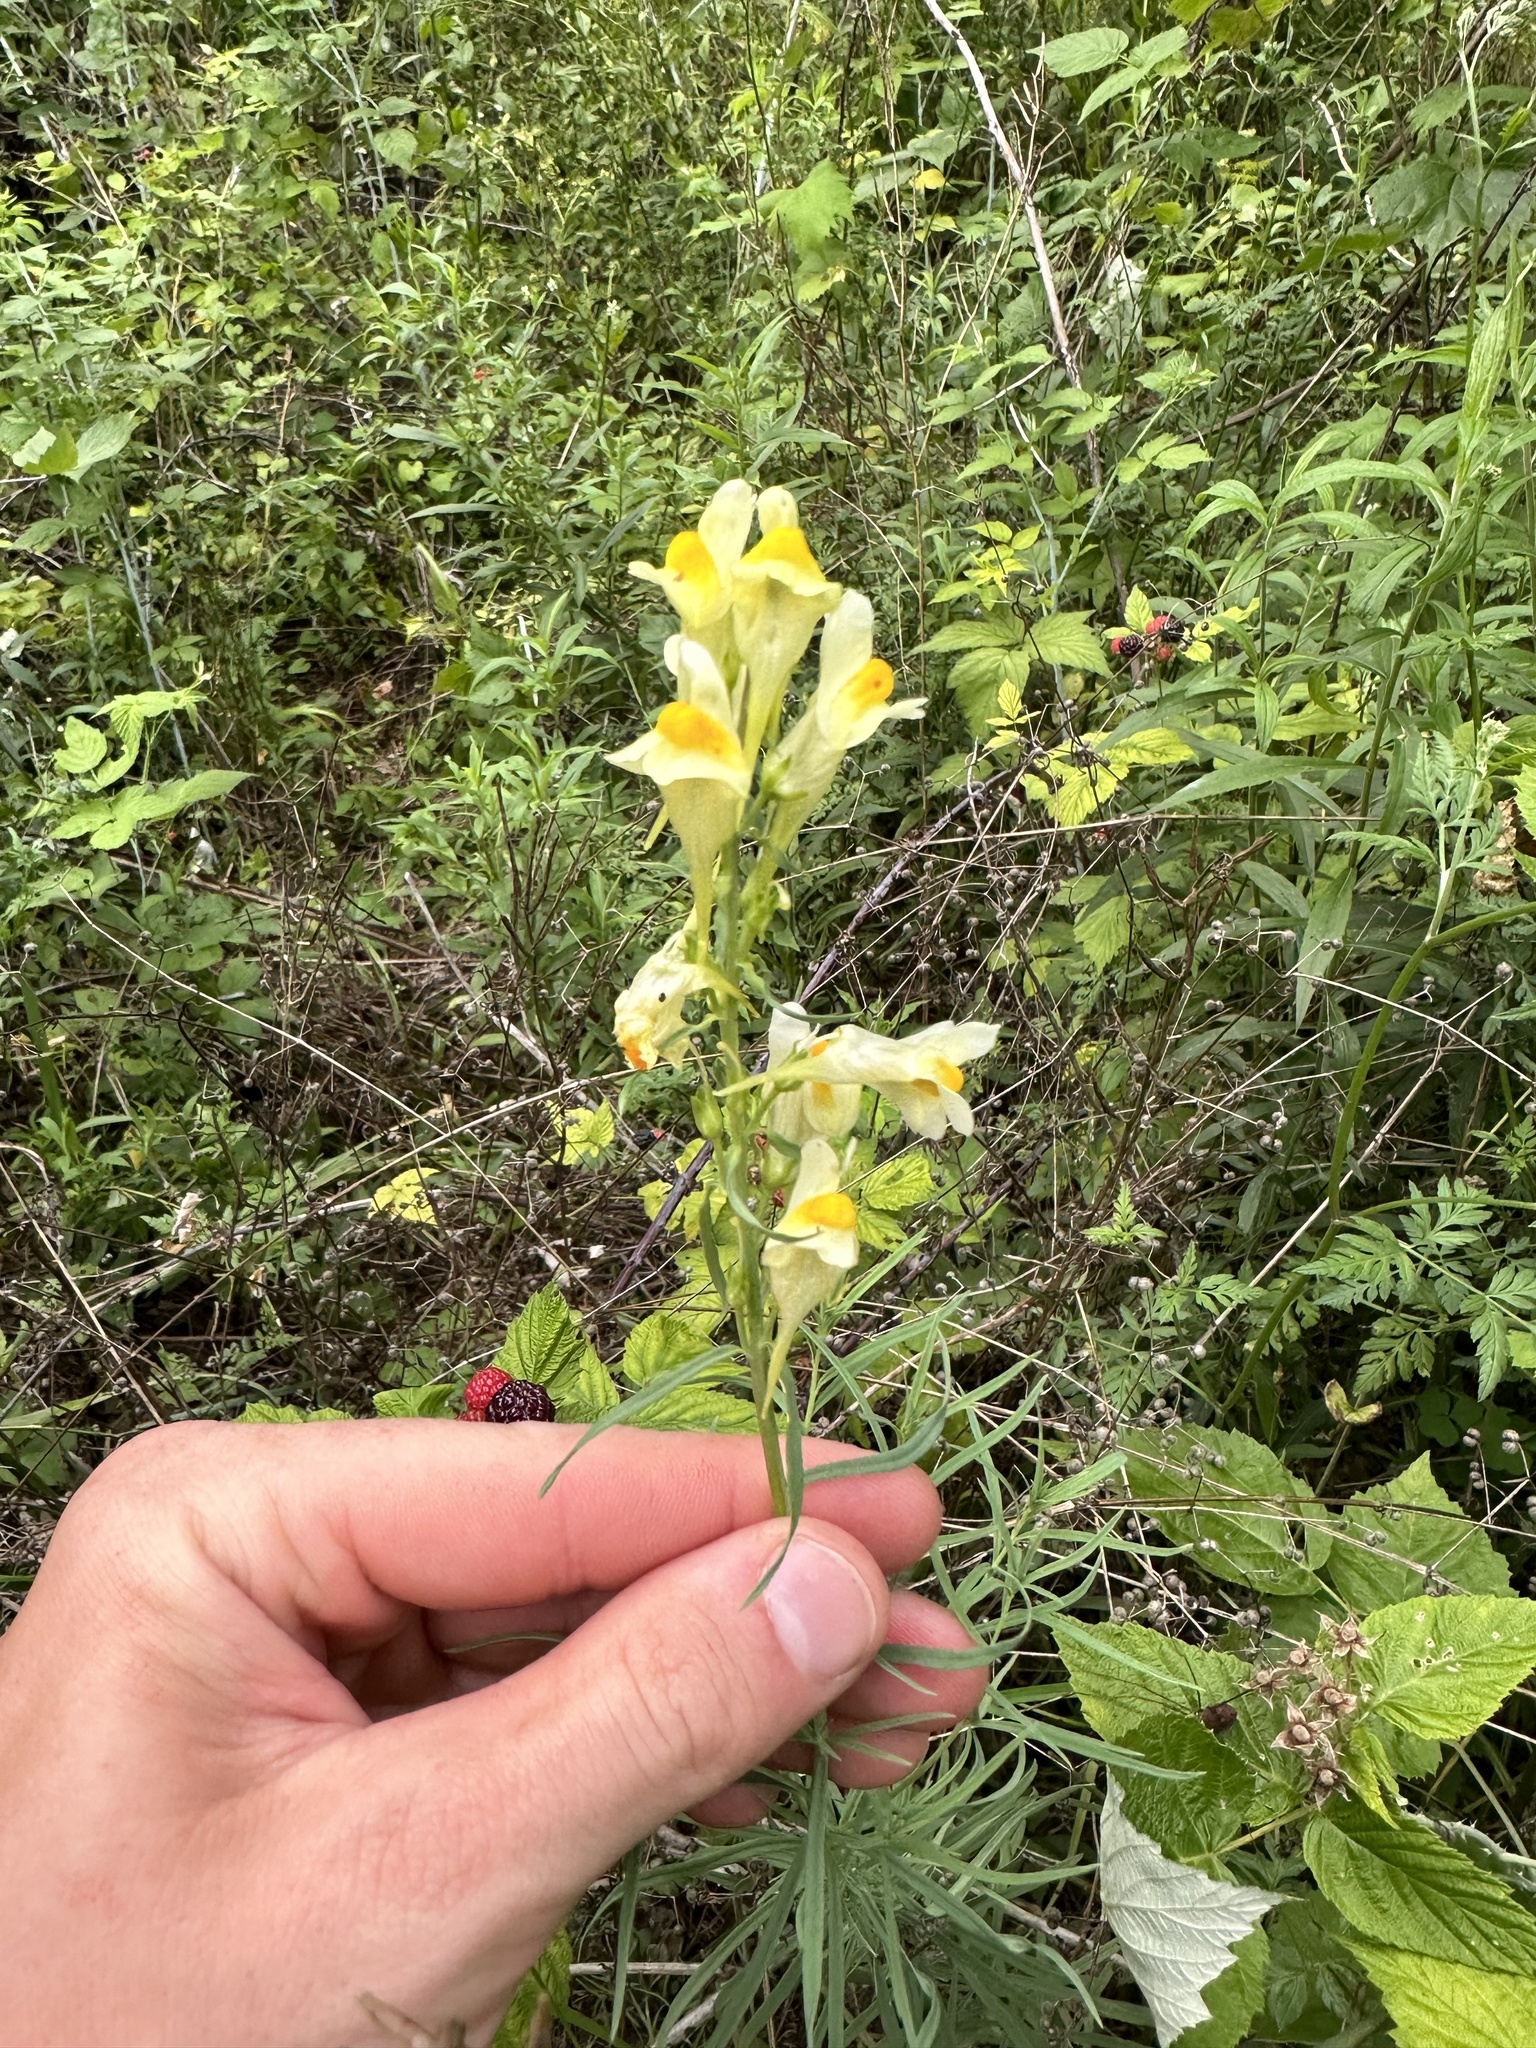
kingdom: Plantae
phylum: Tracheophyta
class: Magnoliopsida
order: Lamiales
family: Plantaginaceae
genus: Linaria
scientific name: Linaria vulgaris
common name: Butter and eggs
